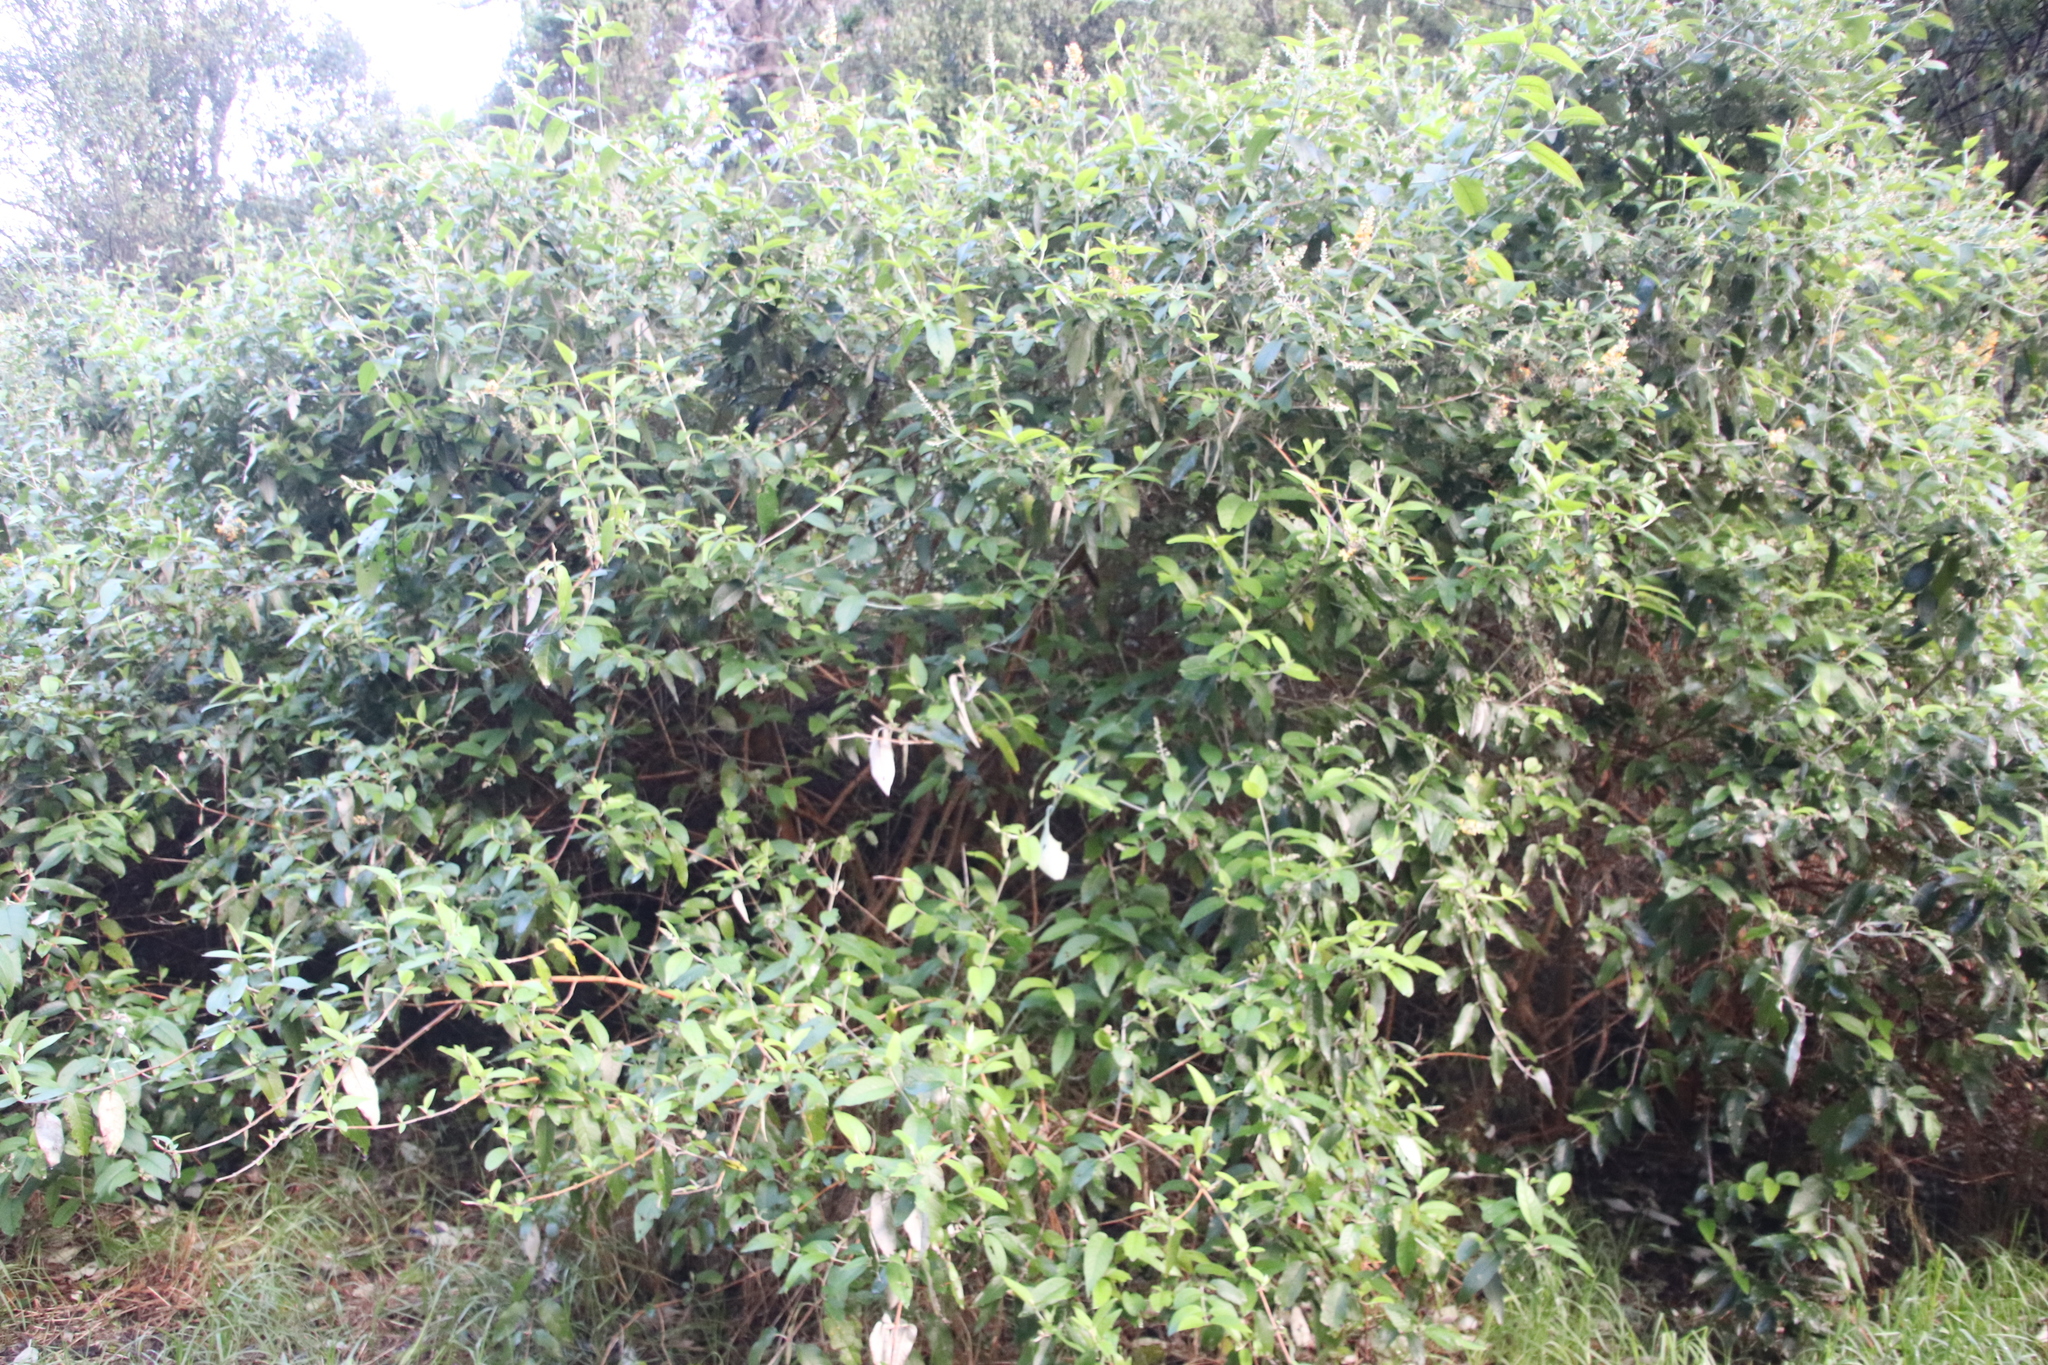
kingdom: Plantae
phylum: Tracheophyta
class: Magnoliopsida
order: Lamiales
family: Scrophulariaceae
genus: Buddleja
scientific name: Buddleja madagascariensis
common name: Smokebush
